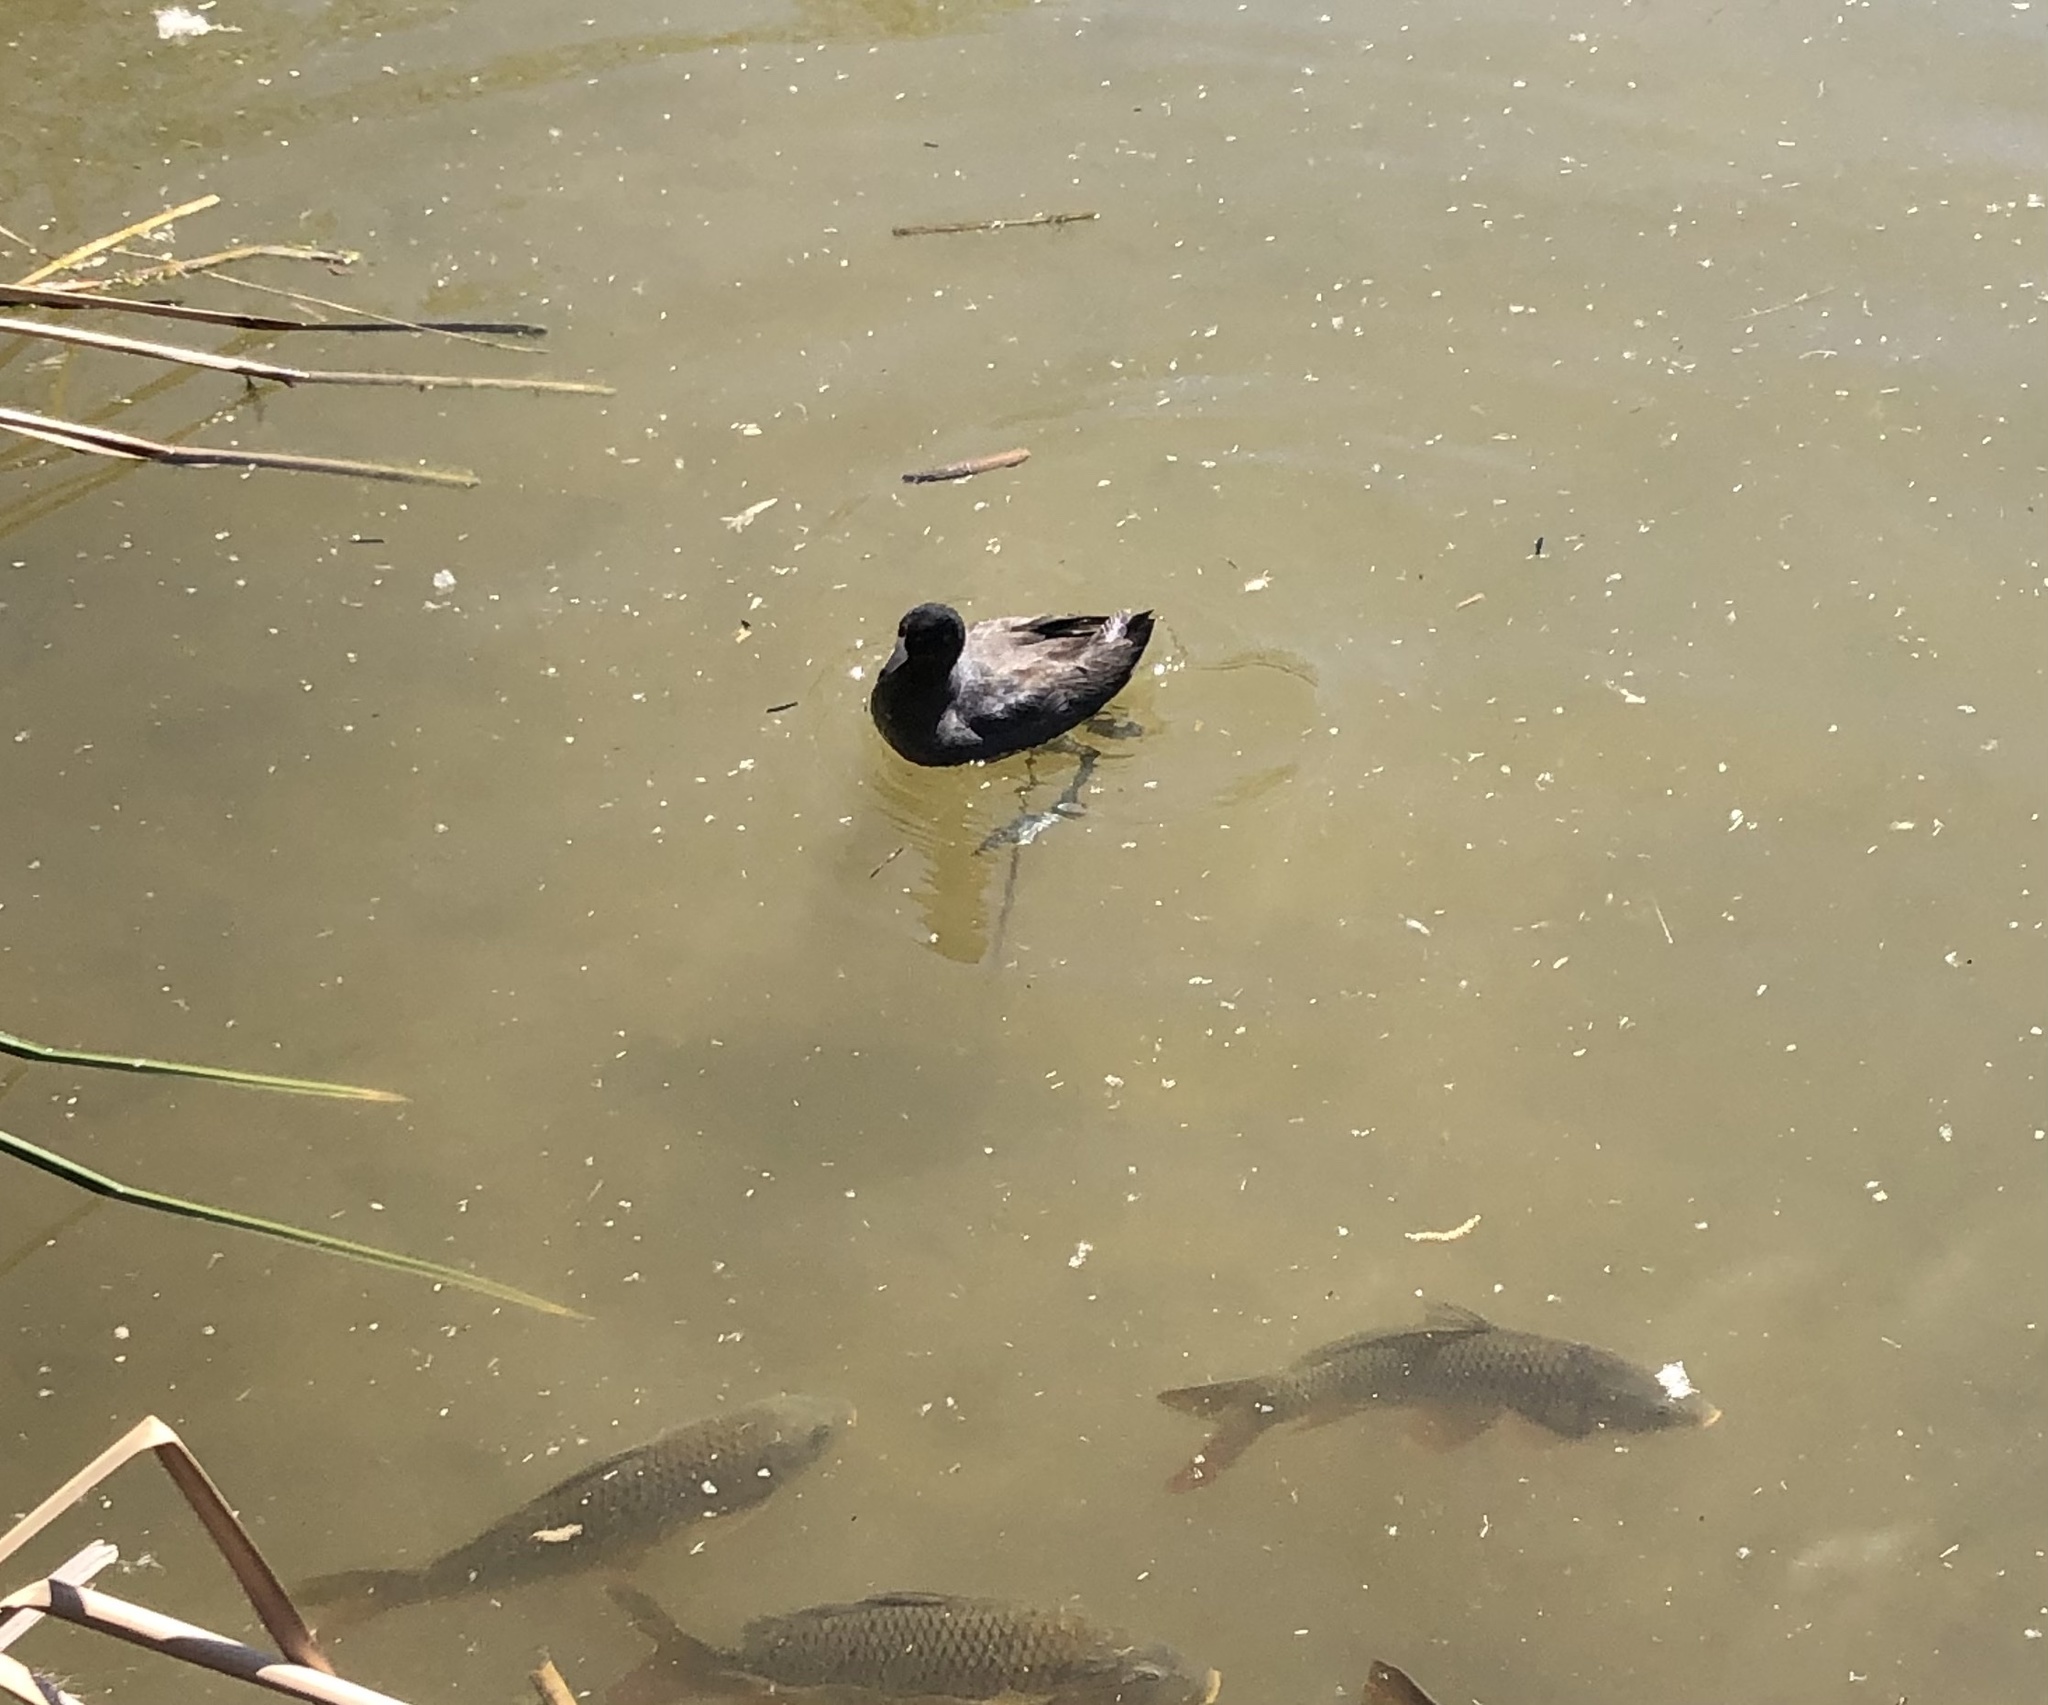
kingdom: Animalia
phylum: Chordata
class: Aves
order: Gruiformes
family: Rallidae
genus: Fulica
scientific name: Fulica americana
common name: American coot
